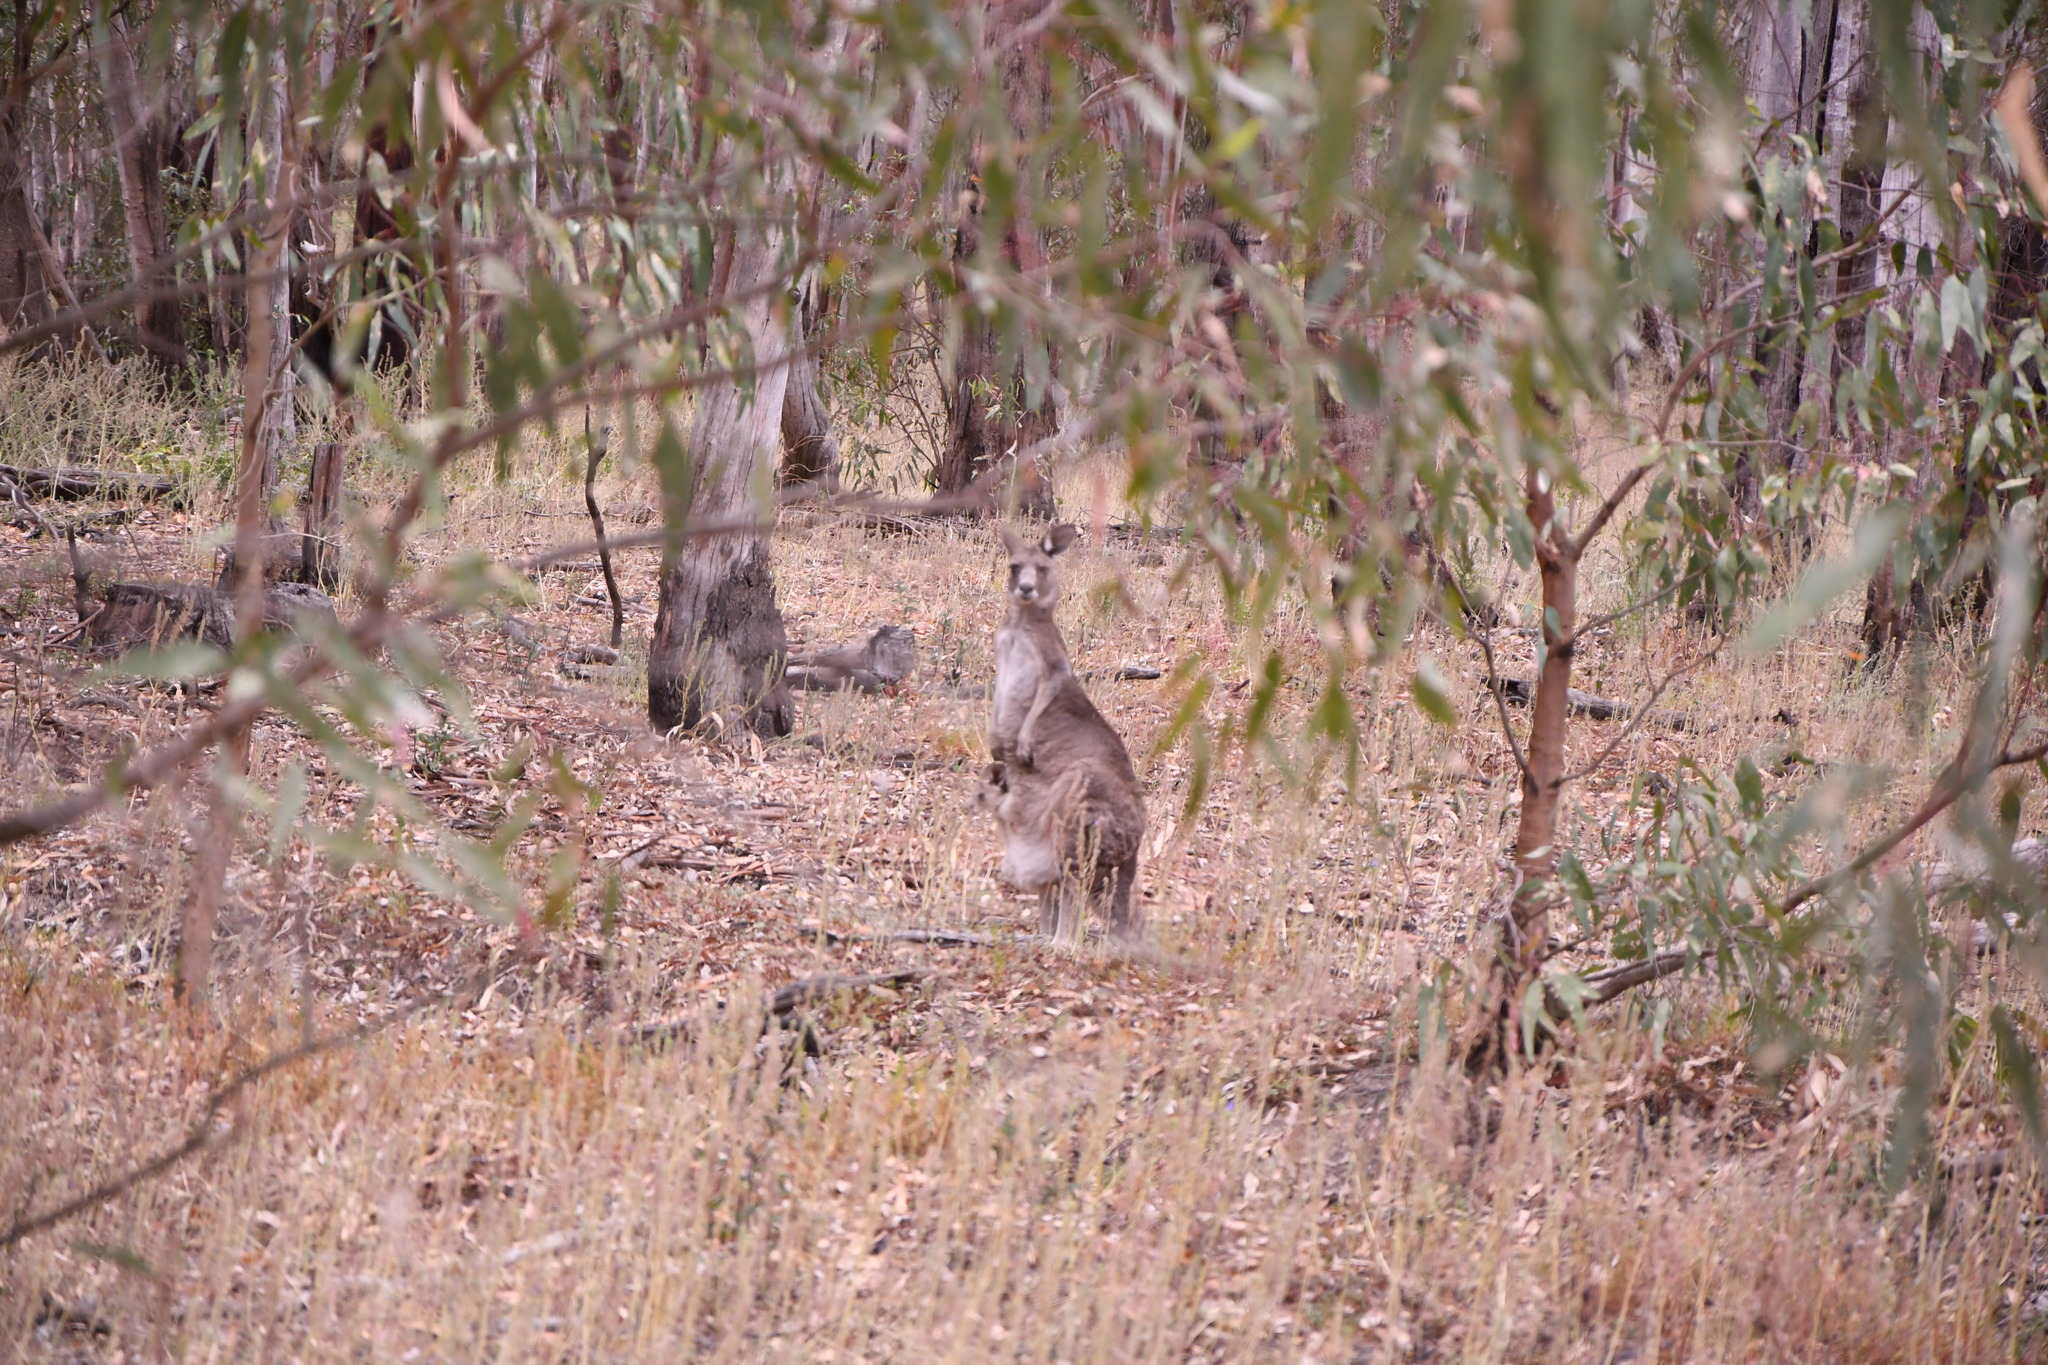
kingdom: Animalia
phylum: Chordata
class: Mammalia
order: Diprotodontia
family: Macropodidae
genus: Macropus
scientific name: Macropus giganteus
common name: Eastern grey kangaroo
